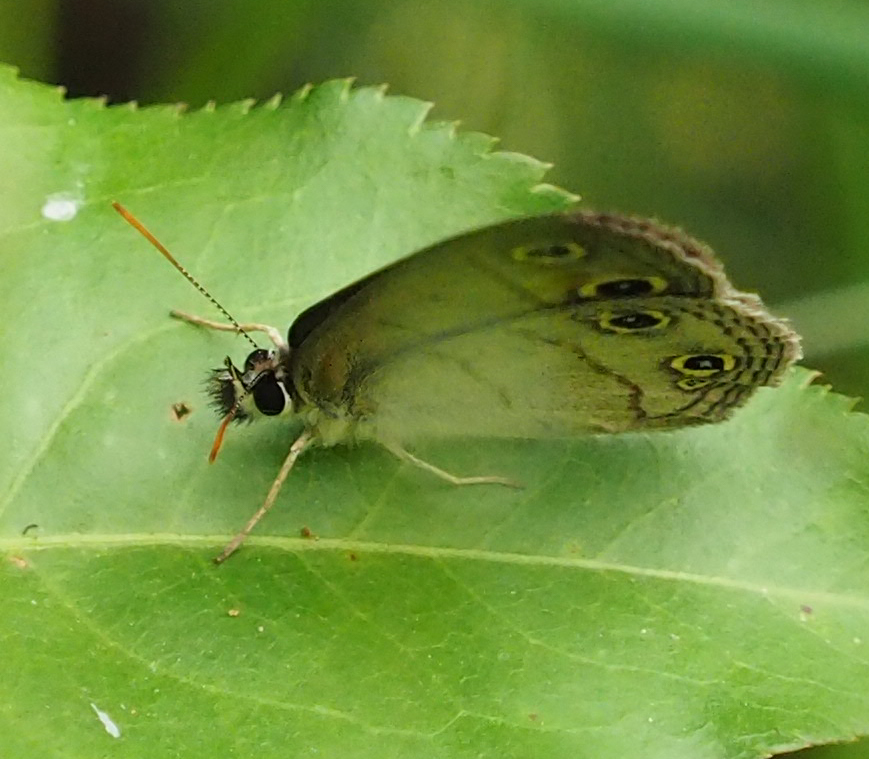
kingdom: Animalia
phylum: Arthropoda
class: Insecta
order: Lepidoptera
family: Nymphalidae
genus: Euptychia
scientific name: Euptychia cymela
